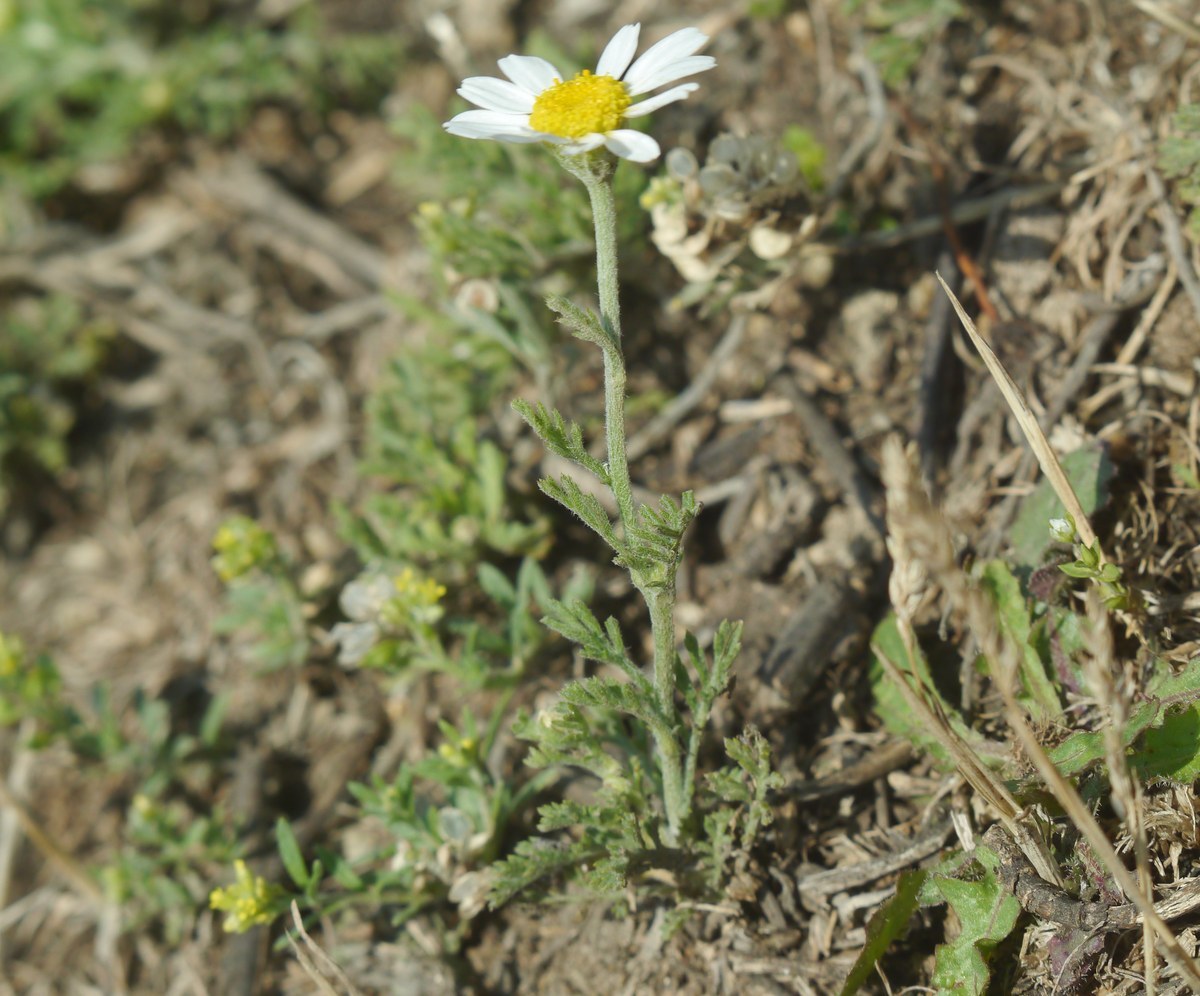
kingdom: Plantae
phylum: Tracheophyta
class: Magnoliopsida
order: Asterales
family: Asteraceae
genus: Anthemis
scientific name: Anthemis ruthenica
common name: Eastern chamomile
